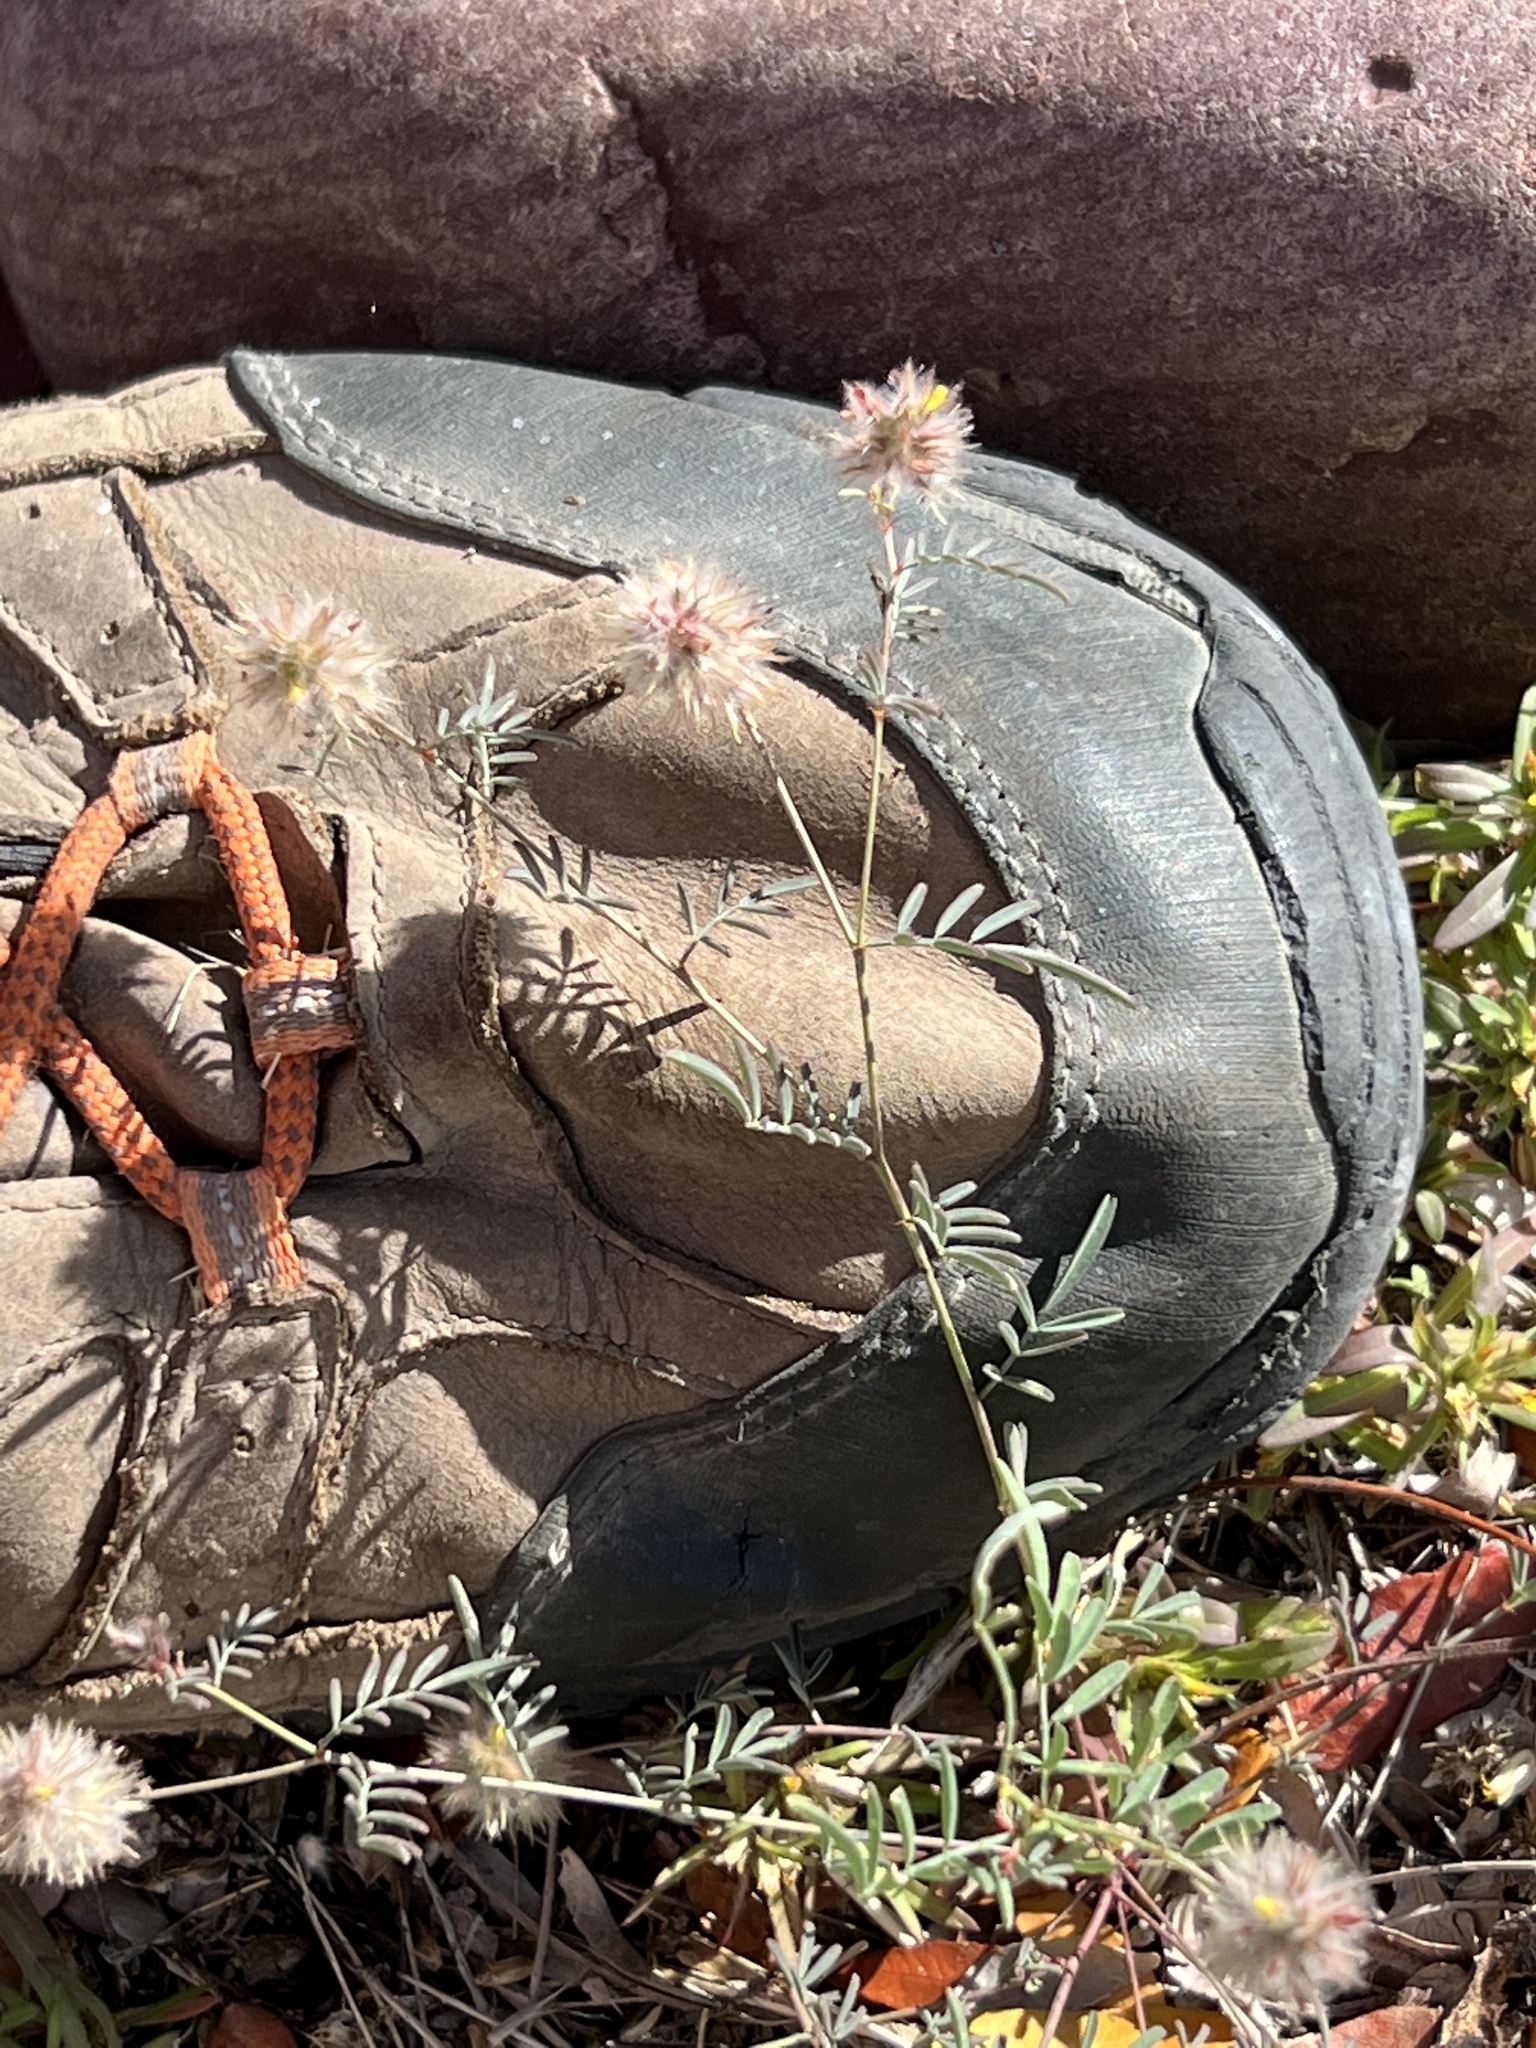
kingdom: Plantae
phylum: Tracheophyta
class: Magnoliopsida
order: Fabales
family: Fabaceae
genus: Dalea
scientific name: Dalea brachystachya
